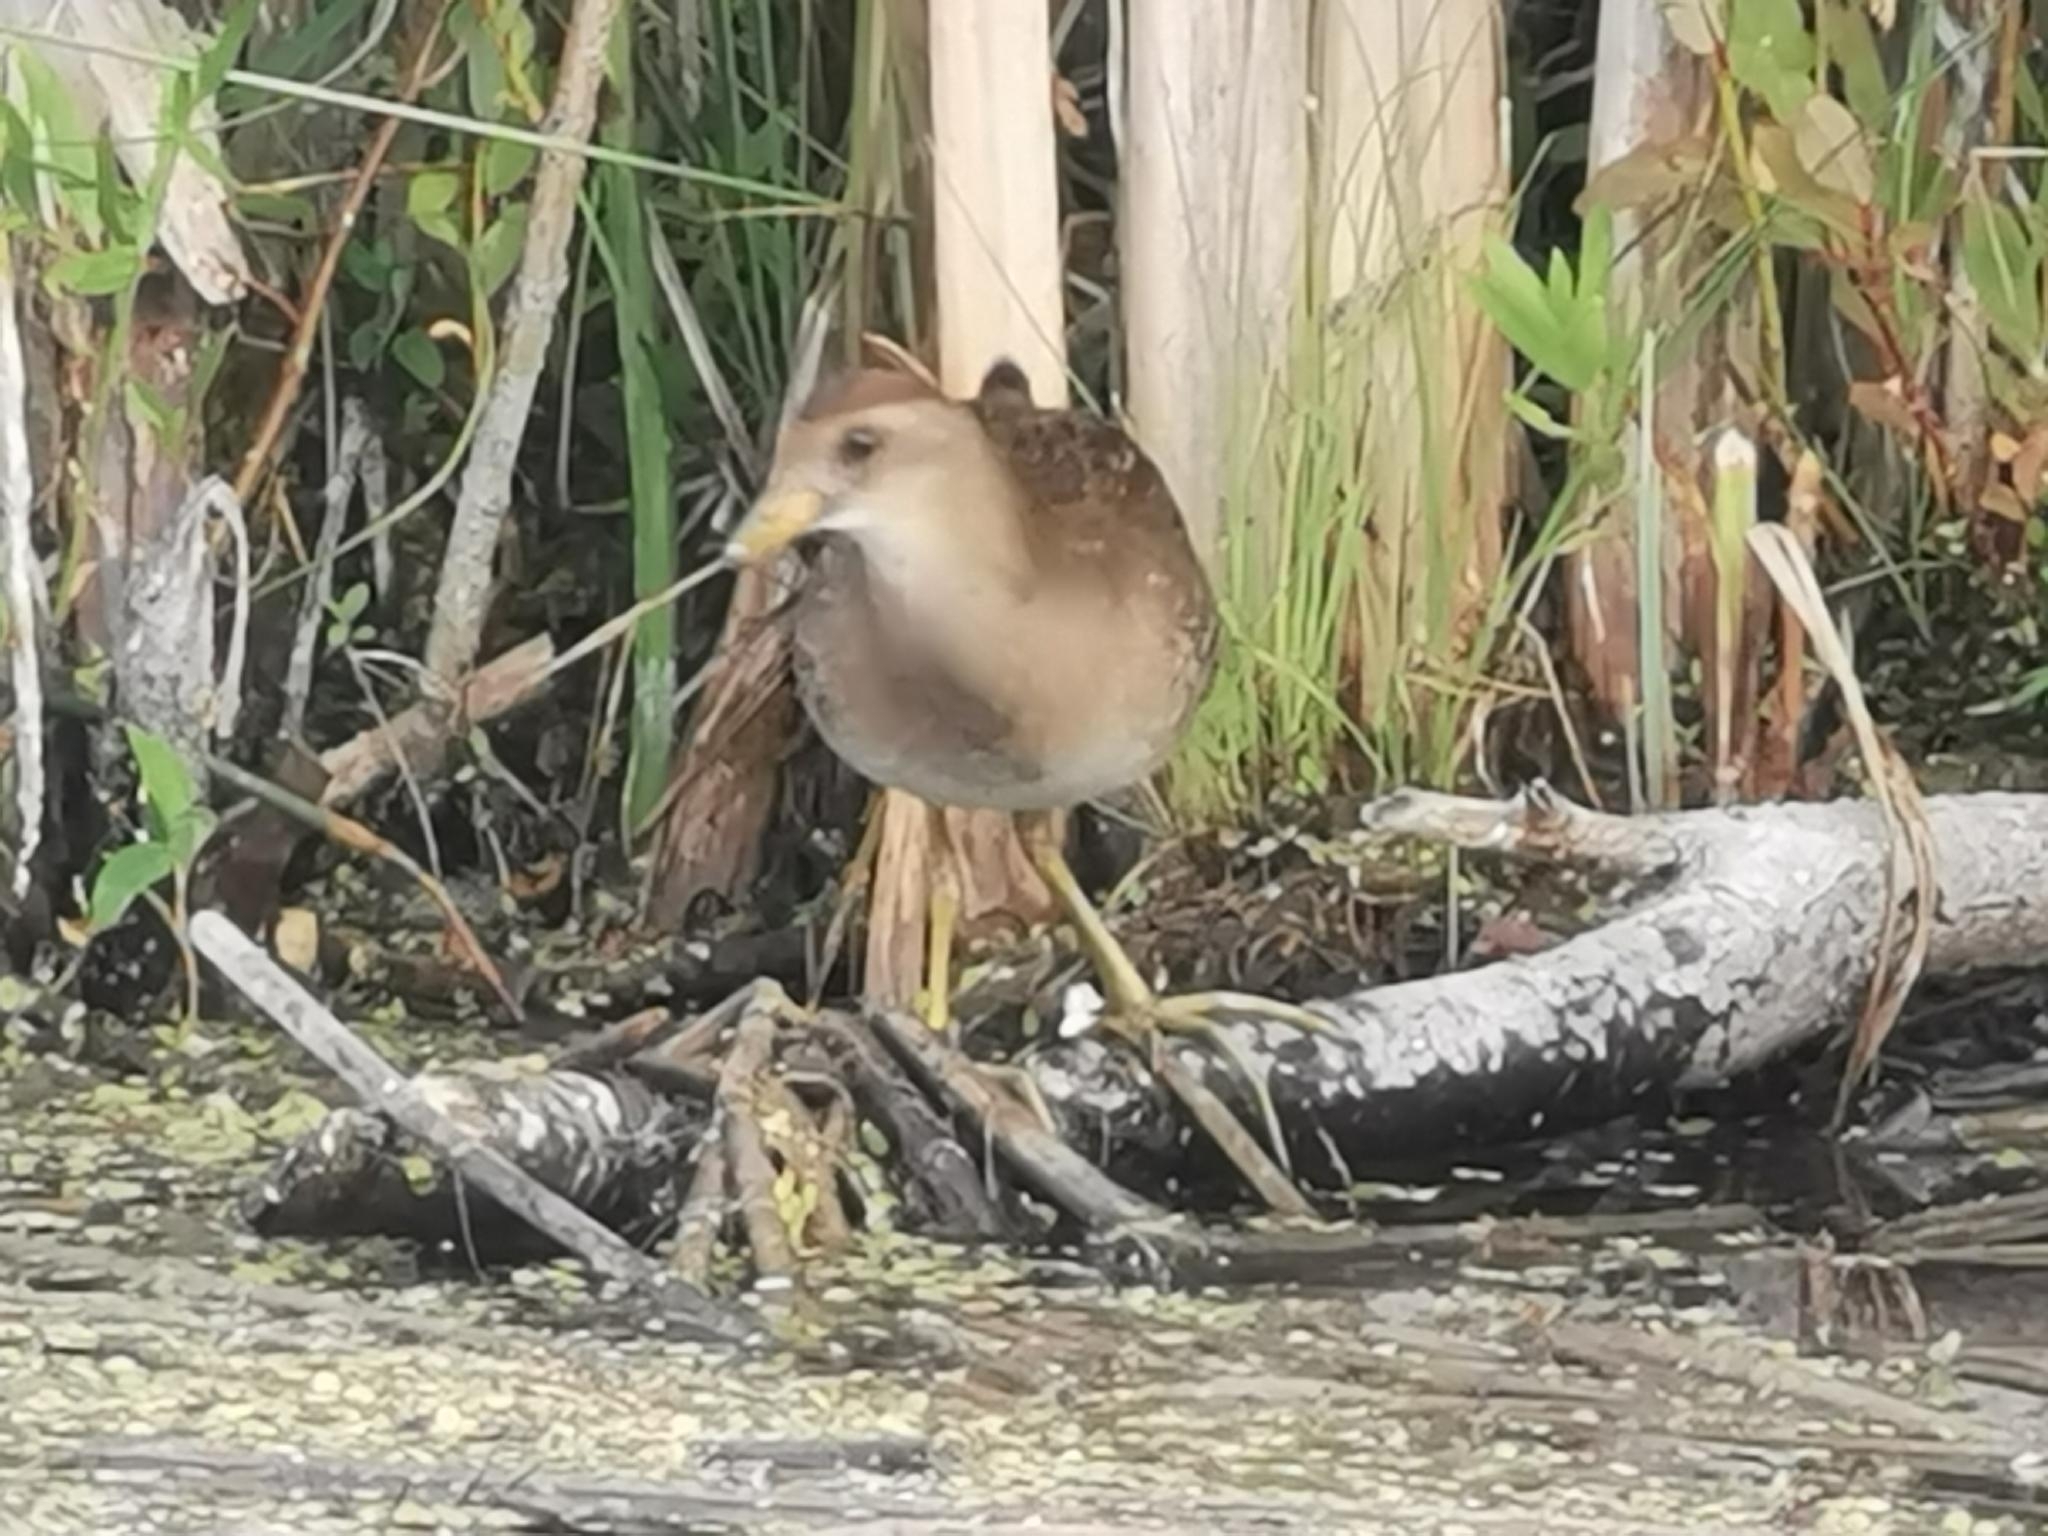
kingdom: Animalia
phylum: Chordata
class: Aves
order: Gruiformes
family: Rallidae
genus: Porzana
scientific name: Porzana carolina
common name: Sora
